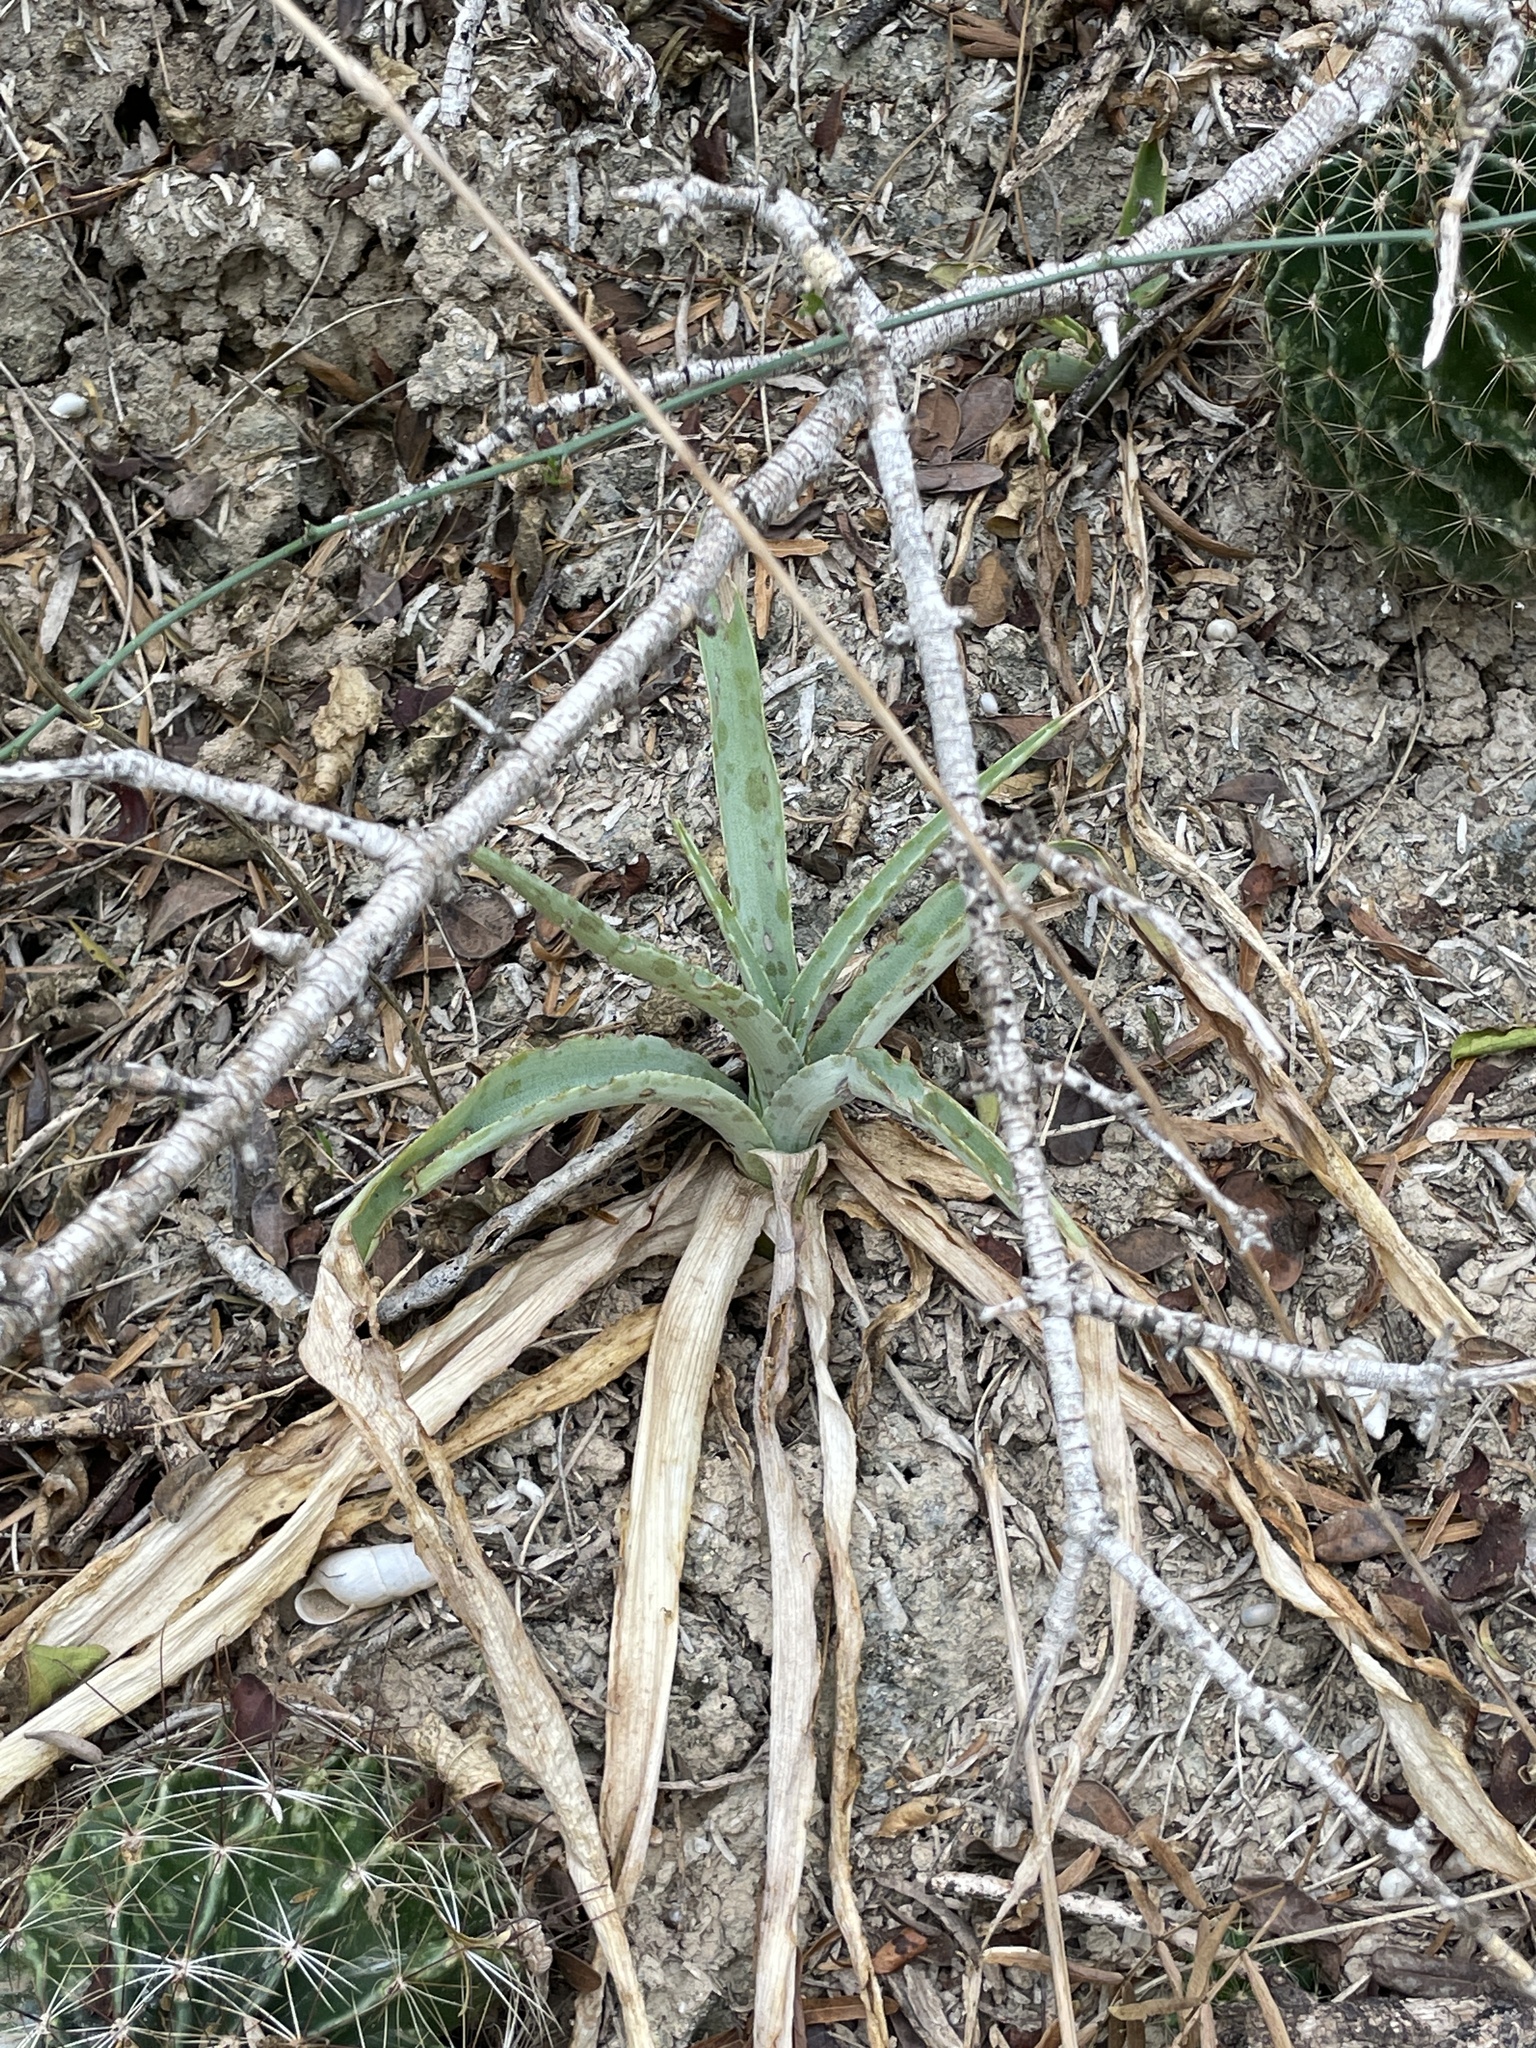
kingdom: Plantae
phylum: Tracheophyta
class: Liliopsida
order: Asparagales
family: Asparagaceae
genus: Agave
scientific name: Agave maculata
